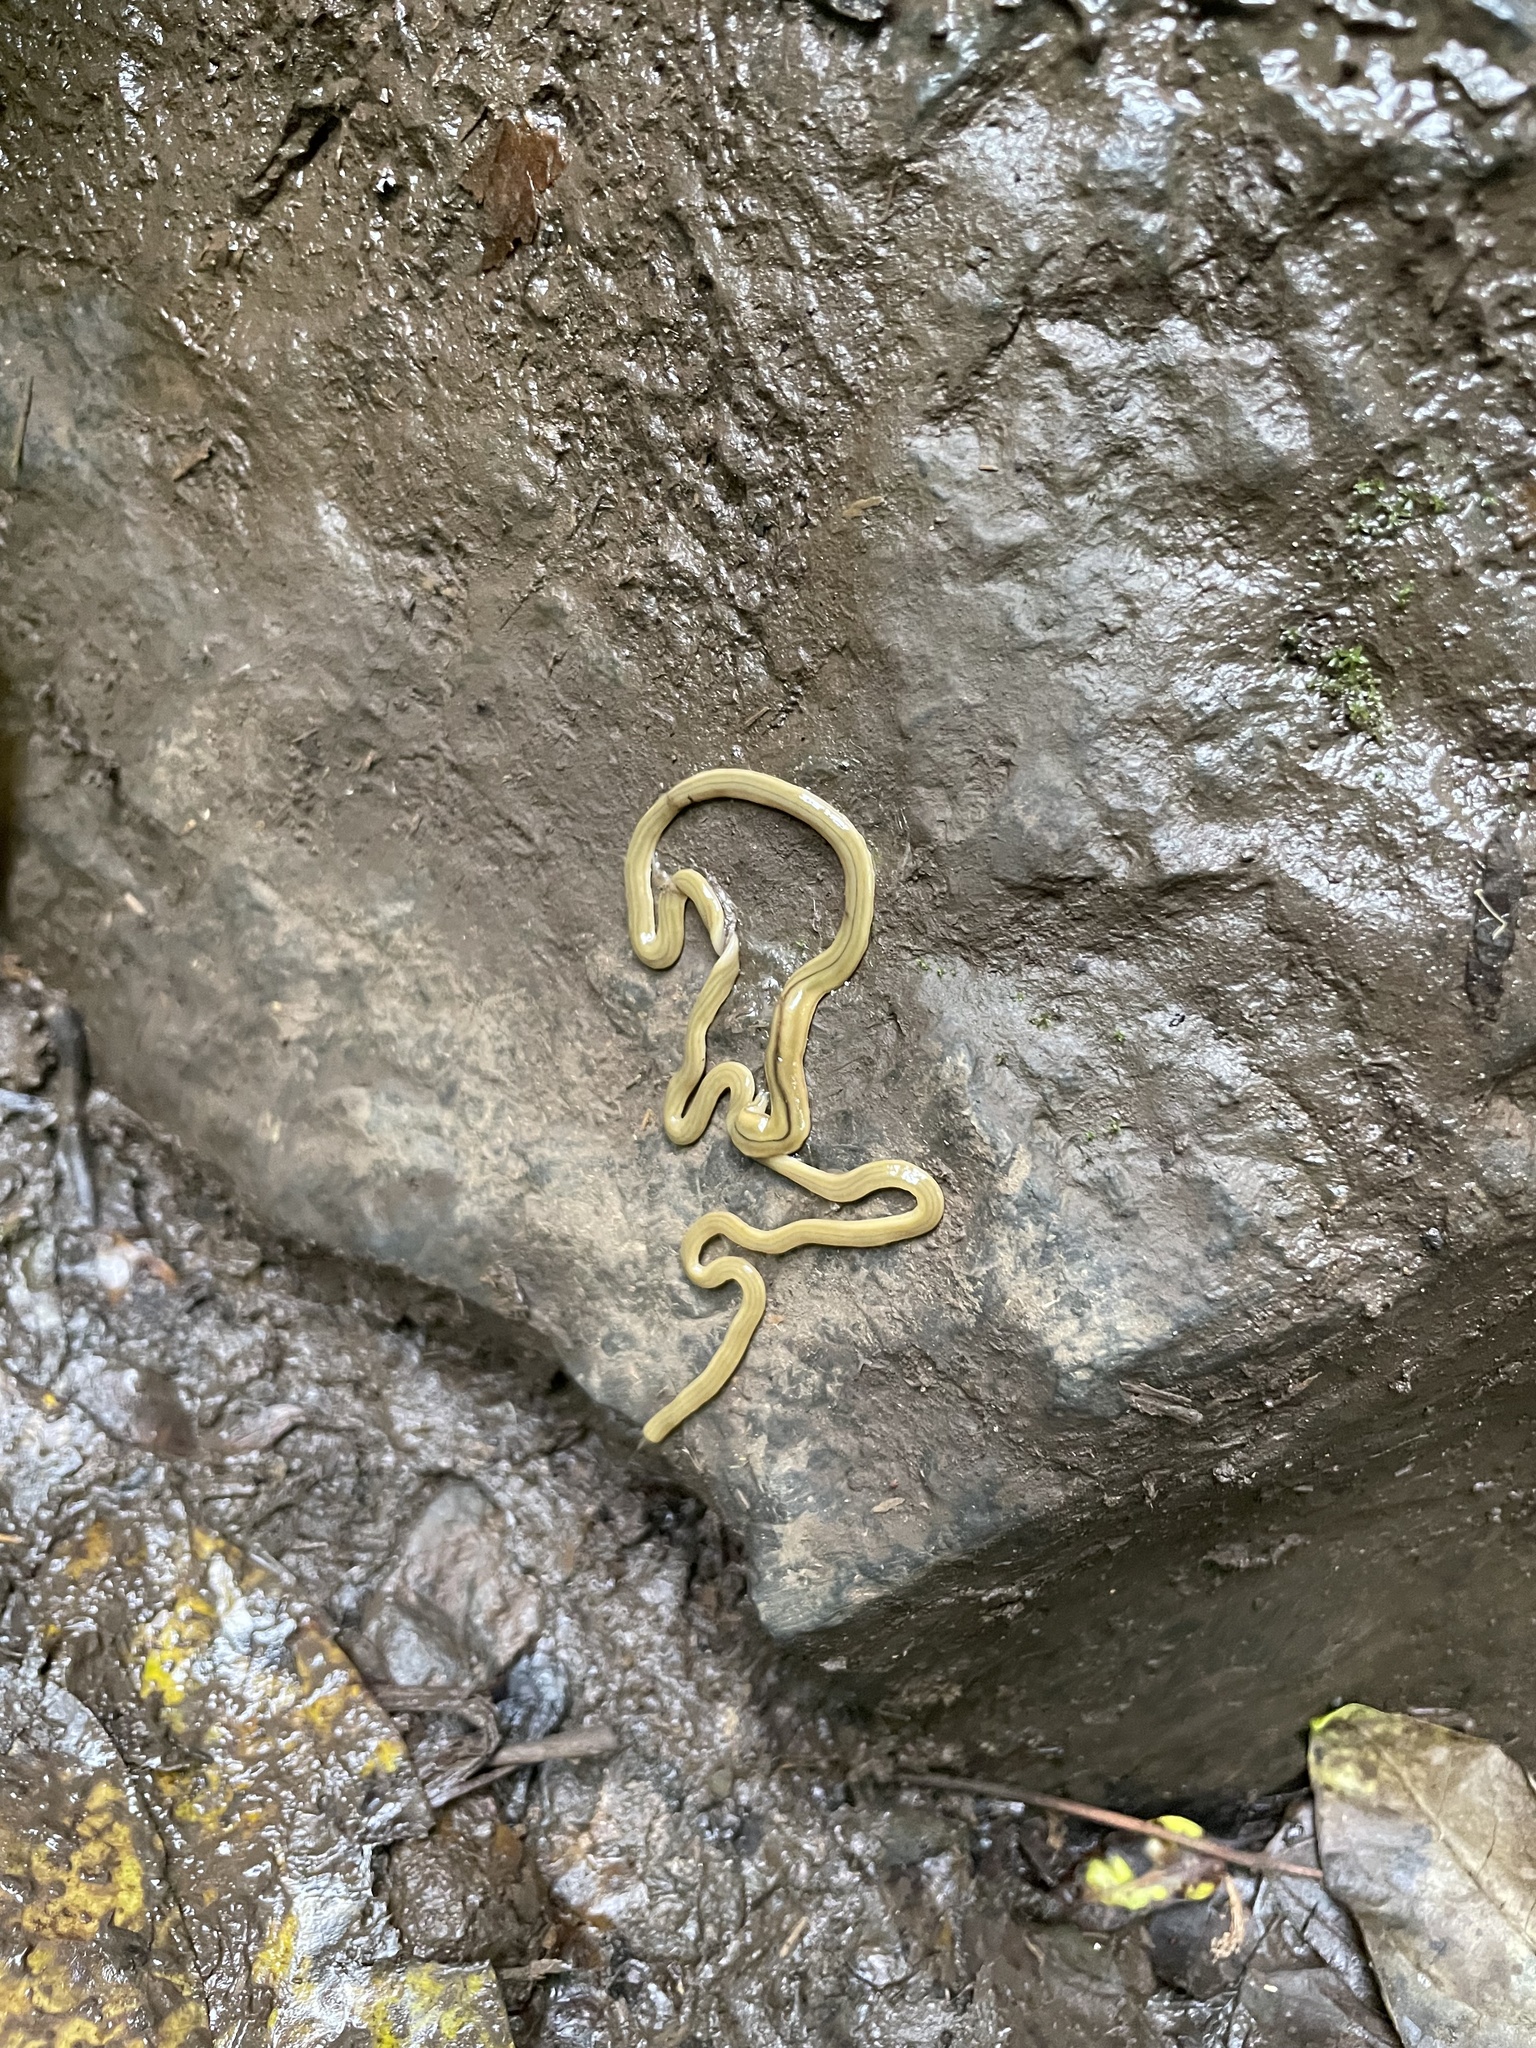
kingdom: Animalia
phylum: Platyhelminthes
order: Tricladida
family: Geoplanidae
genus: Bipalium
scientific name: Bipalium kewense
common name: Hammerhead flatworm
